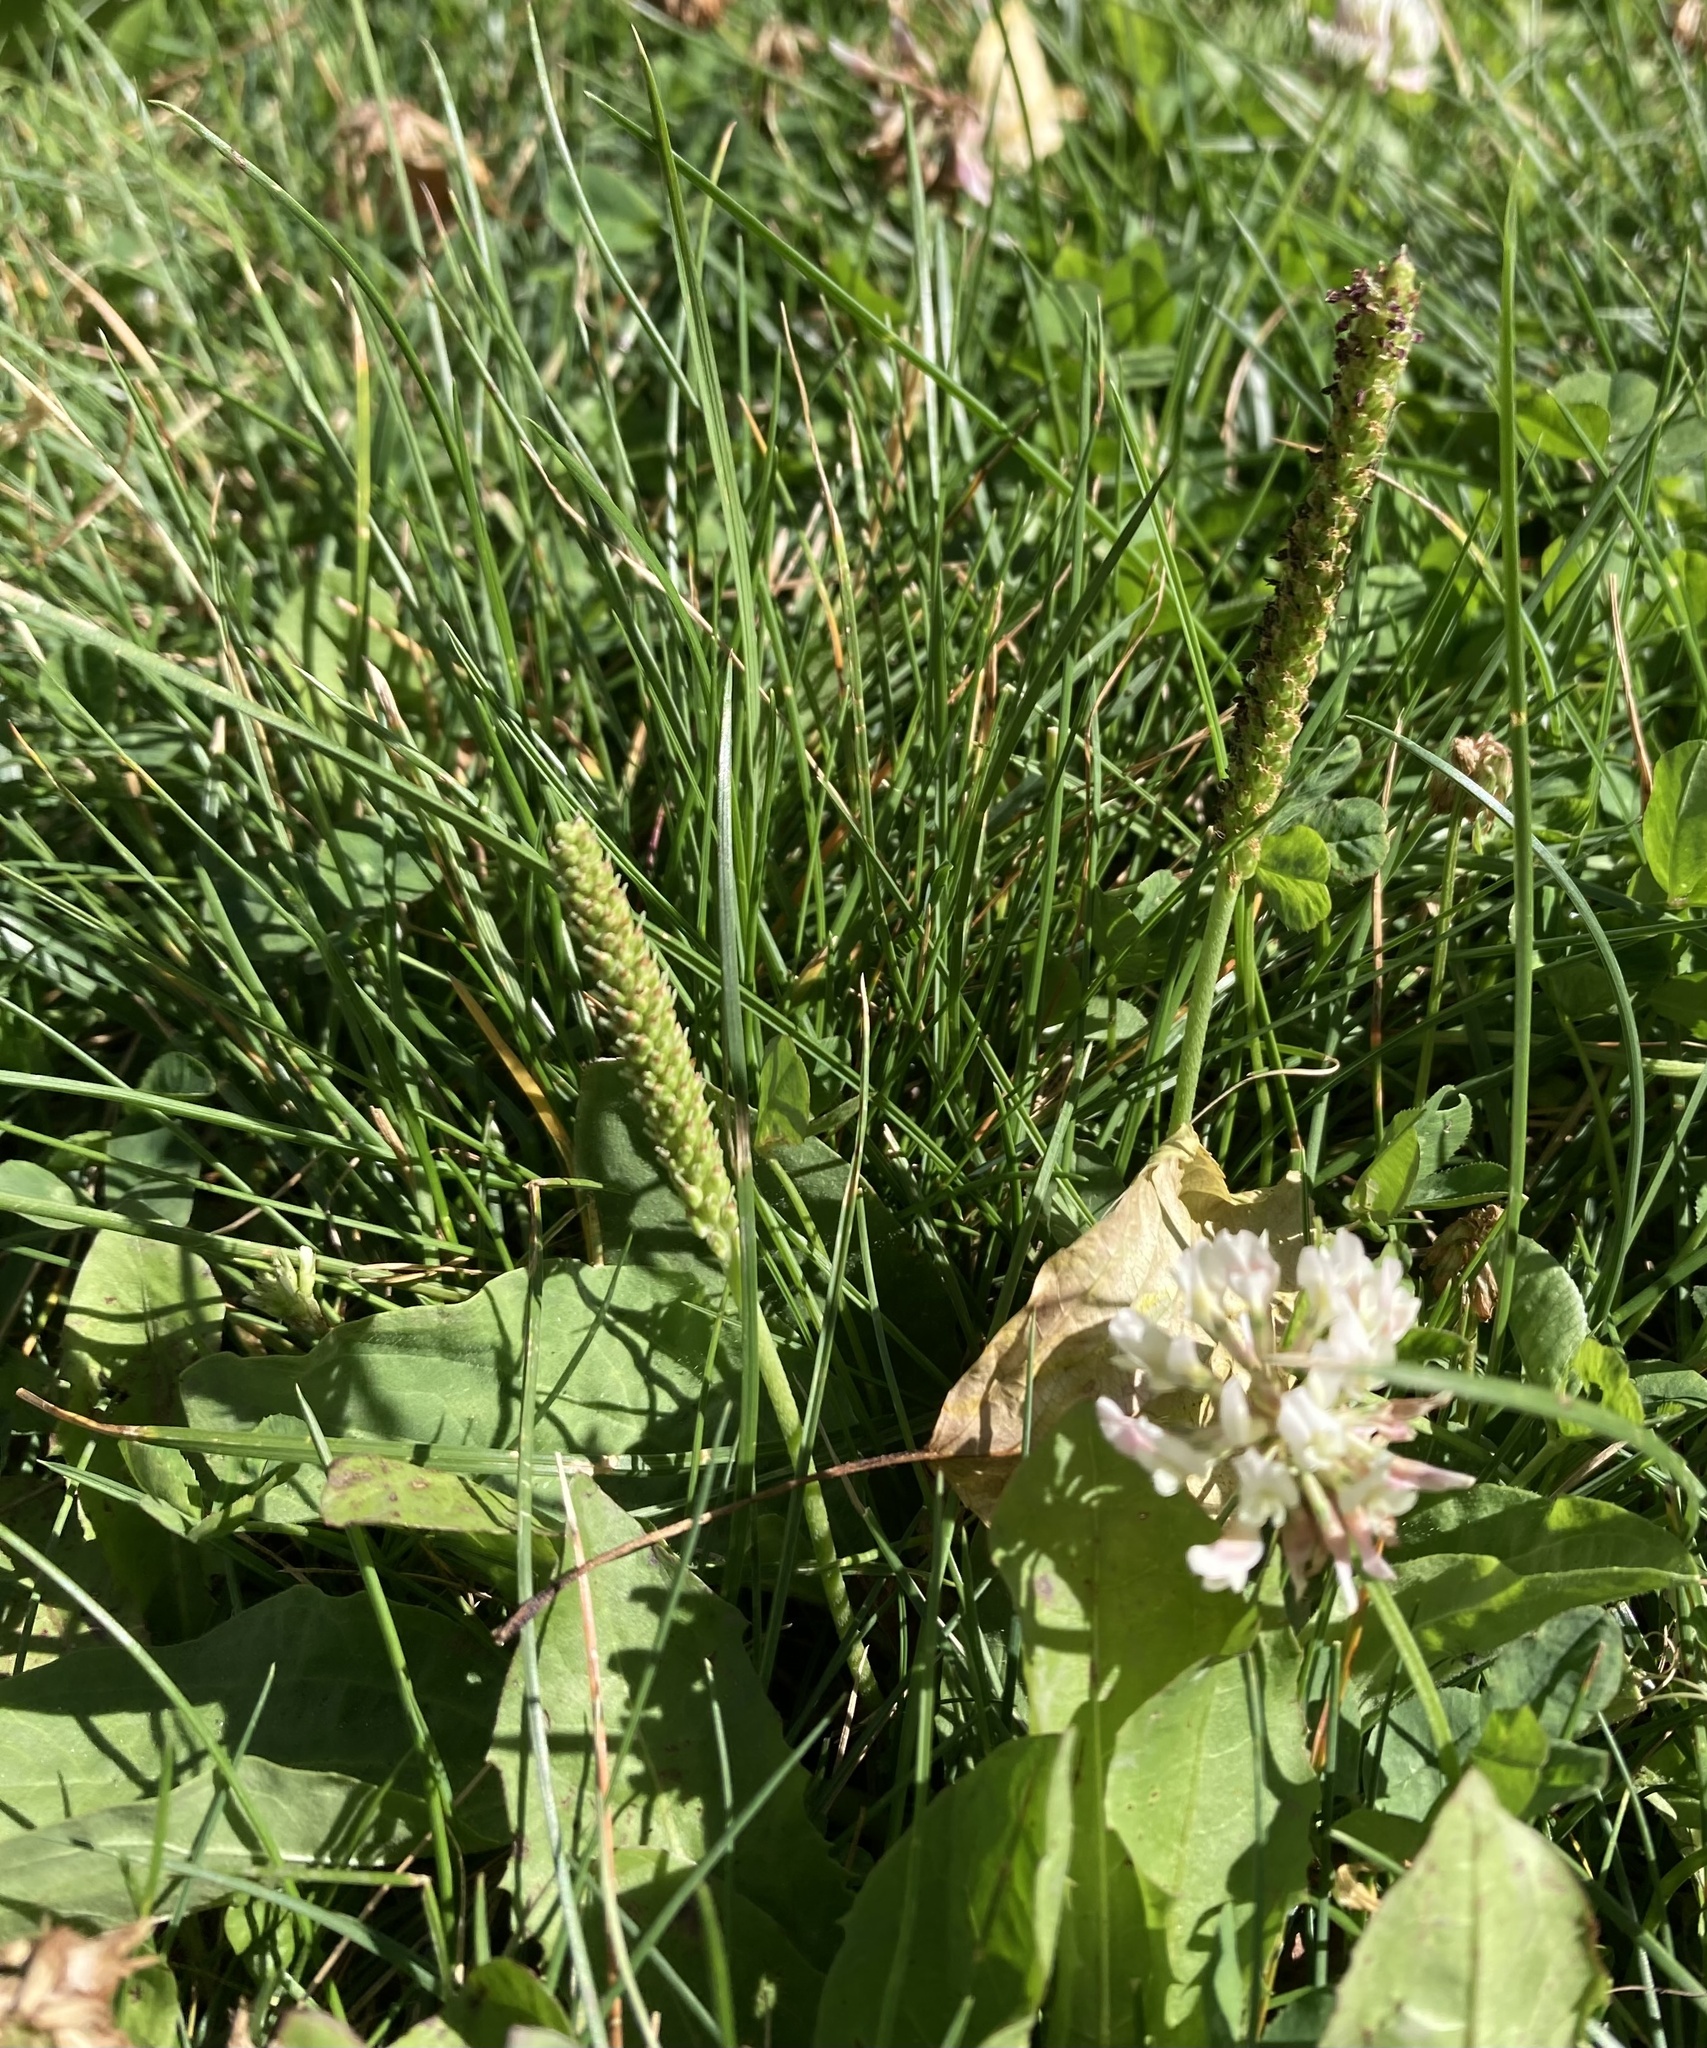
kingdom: Plantae
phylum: Tracheophyta
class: Magnoliopsida
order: Lamiales
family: Plantaginaceae
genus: Plantago
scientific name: Plantago major
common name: Common plantain
